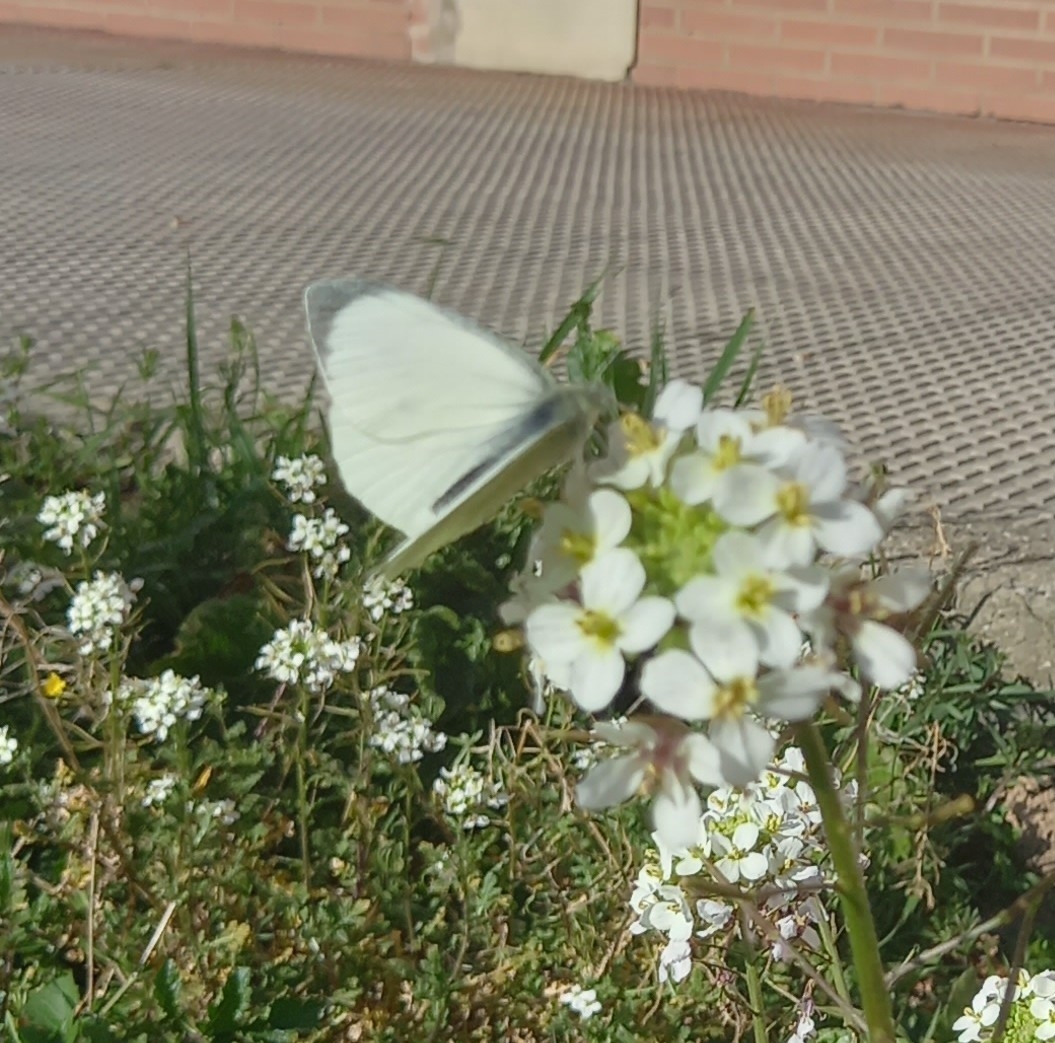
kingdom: Animalia
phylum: Arthropoda
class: Insecta
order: Lepidoptera
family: Pieridae
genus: Pieris
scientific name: Pieris brassicae
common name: Large white
